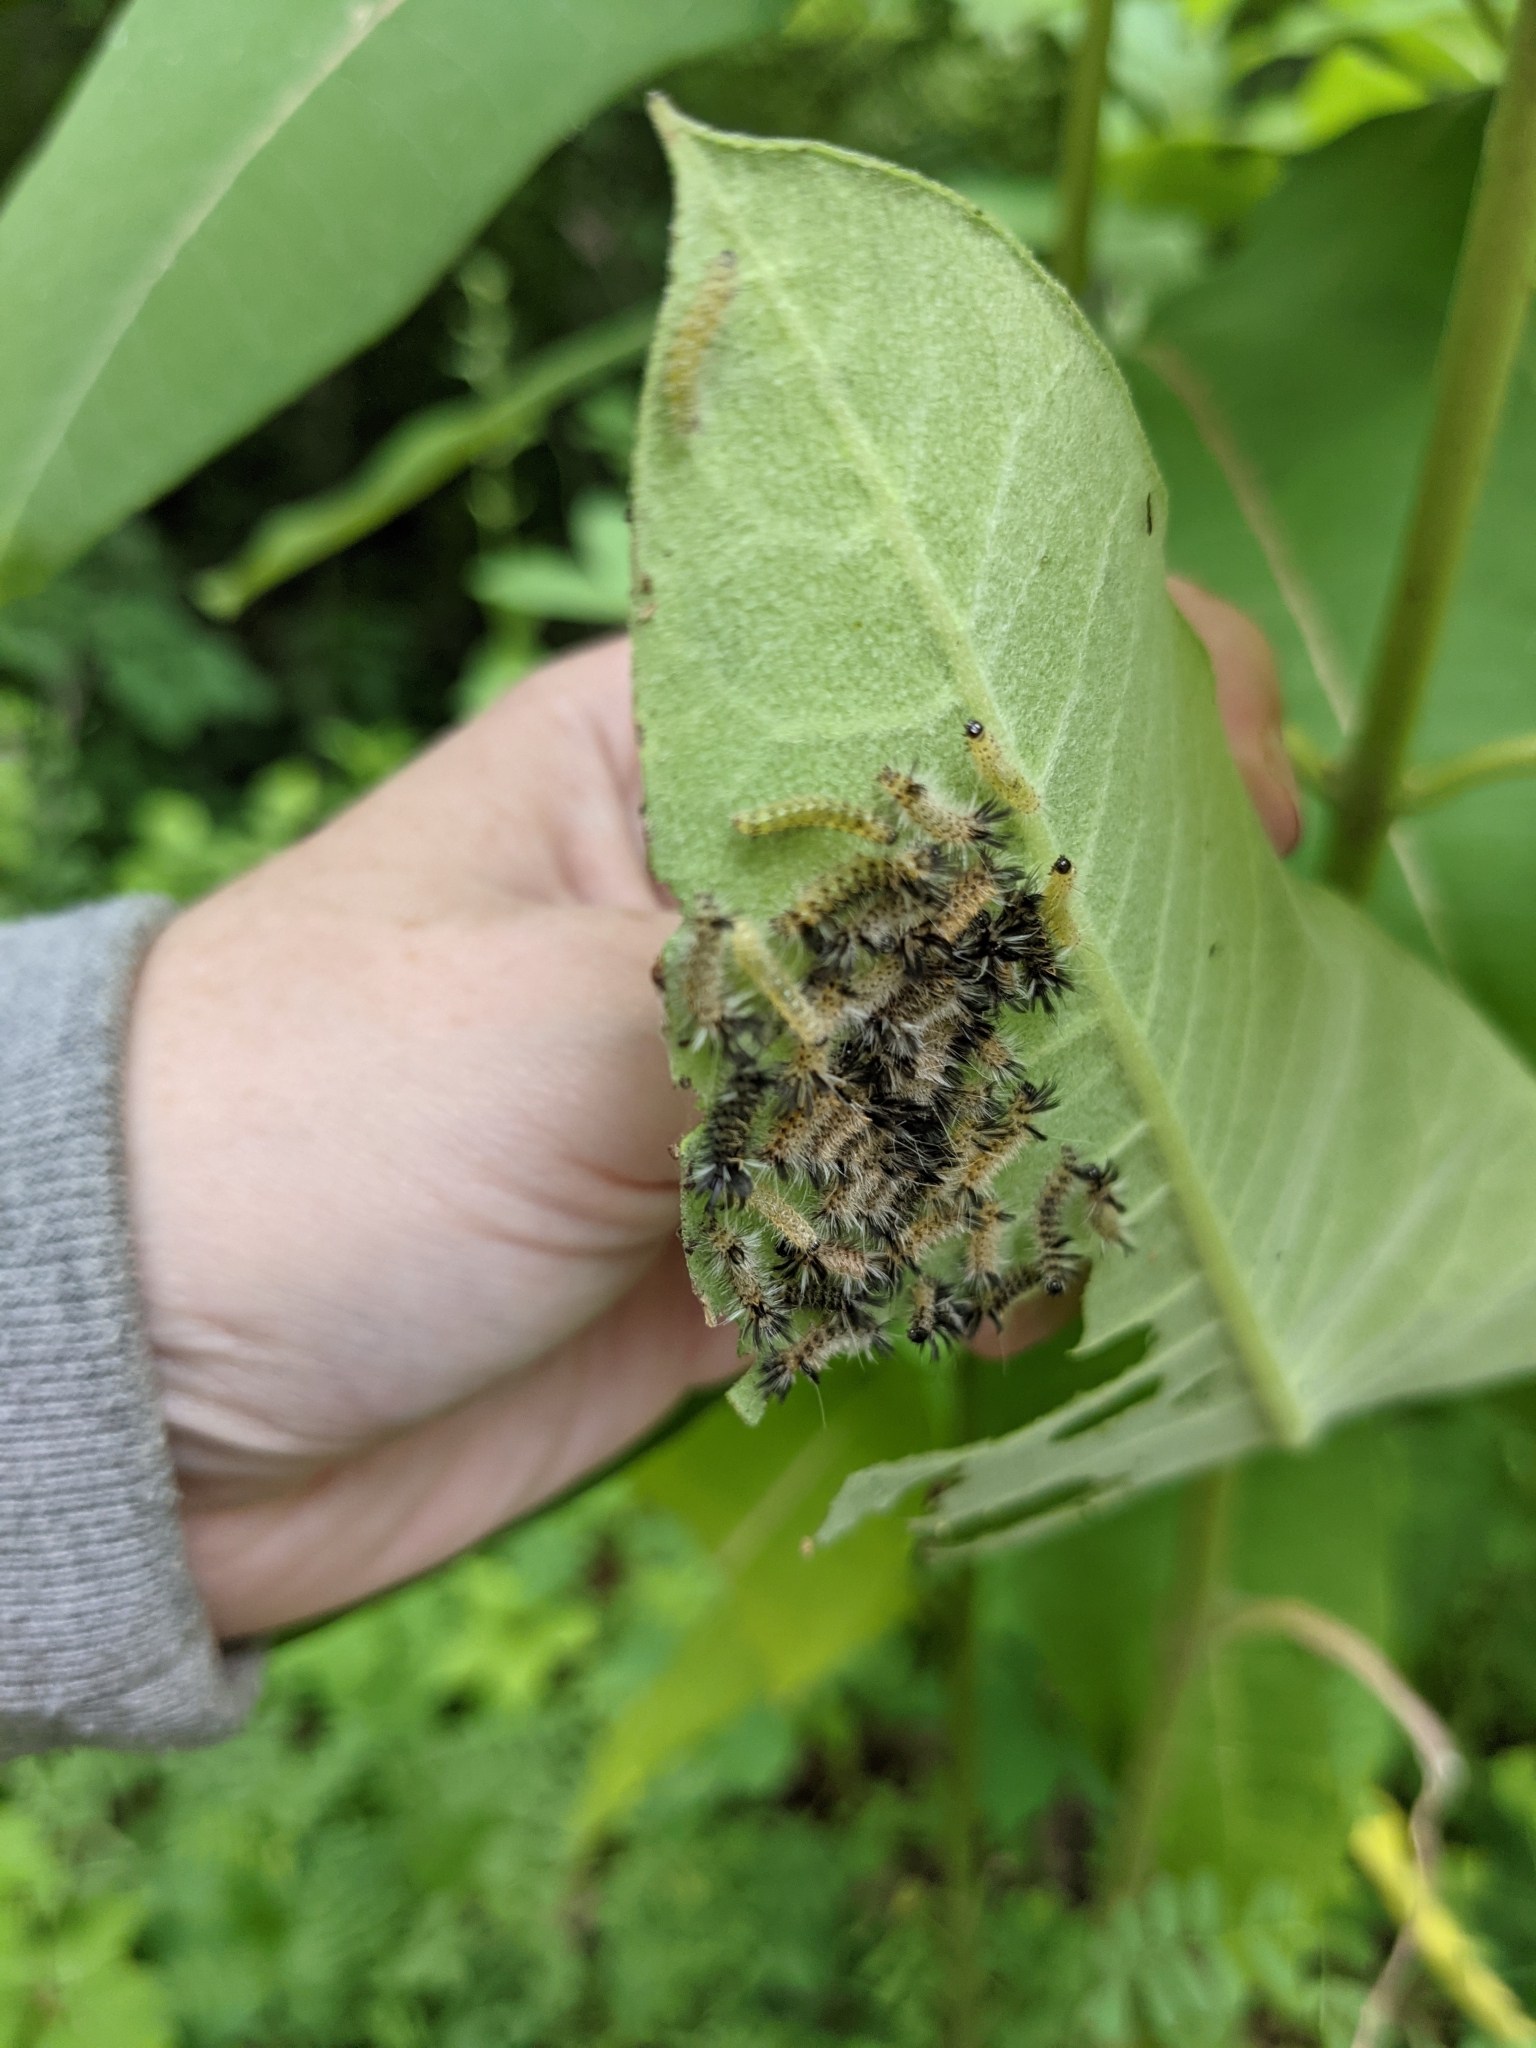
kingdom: Animalia
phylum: Arthropoda
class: Insecta
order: Lepidoptera
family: Erebidae
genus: Euchaetes
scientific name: Euchaetes egle
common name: Milkweed tussock moth
